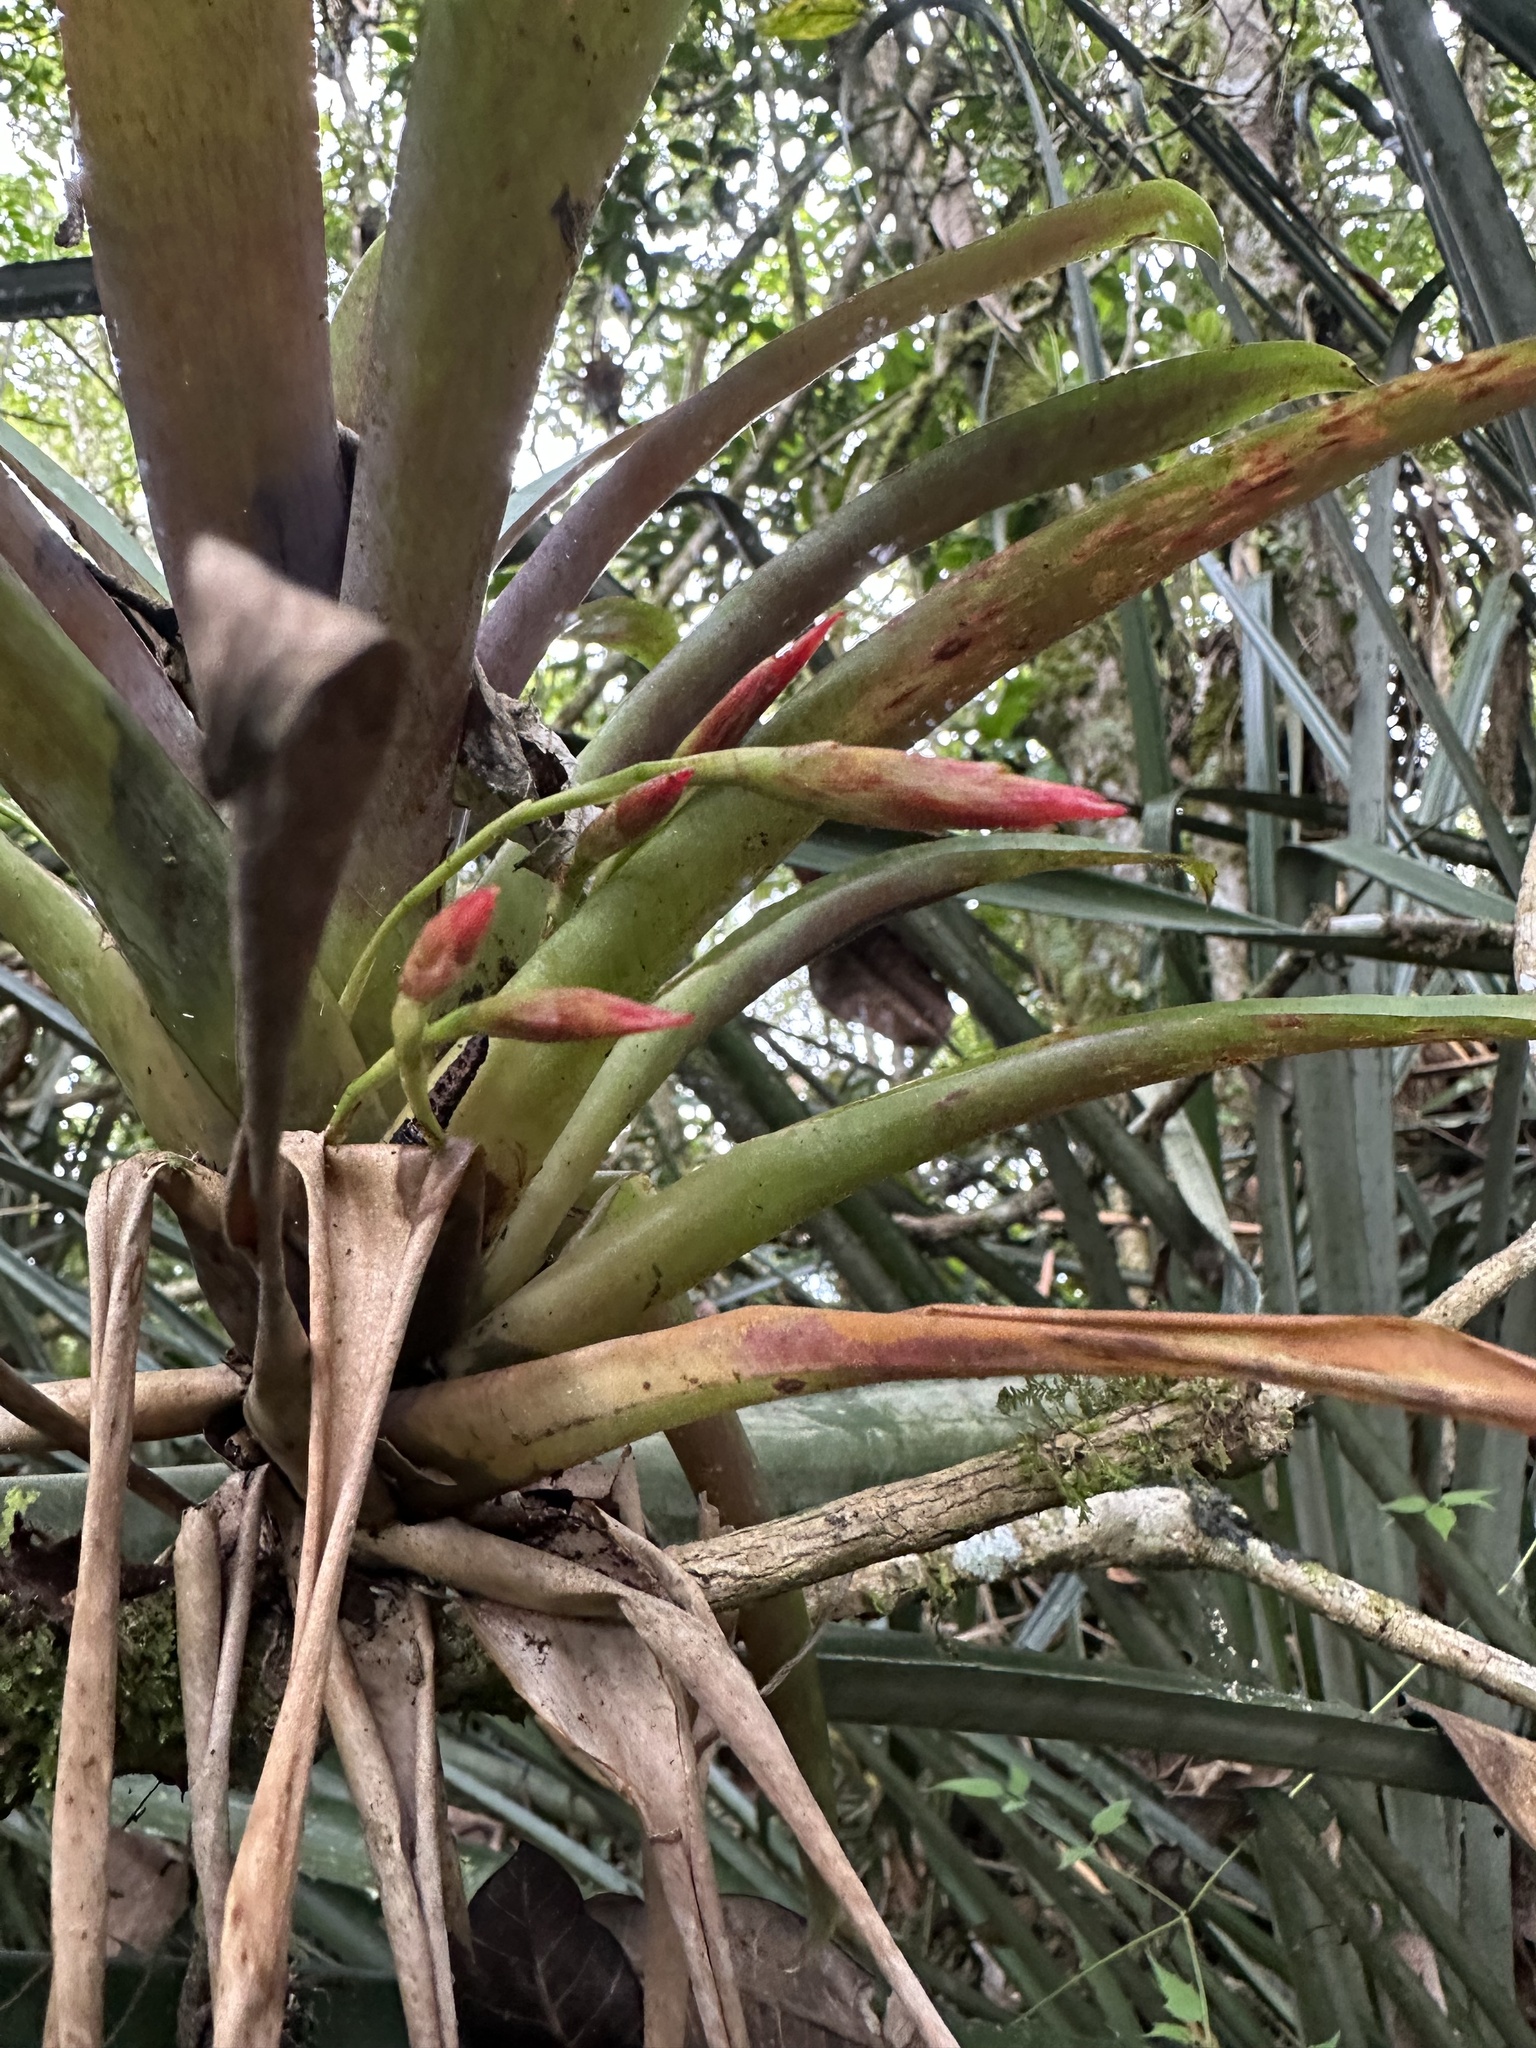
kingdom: Plantae
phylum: Tracheophyta
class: Liliopsida
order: Poales
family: Bromeliaceae
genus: Tillandsia
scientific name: Tillandsia complanata
